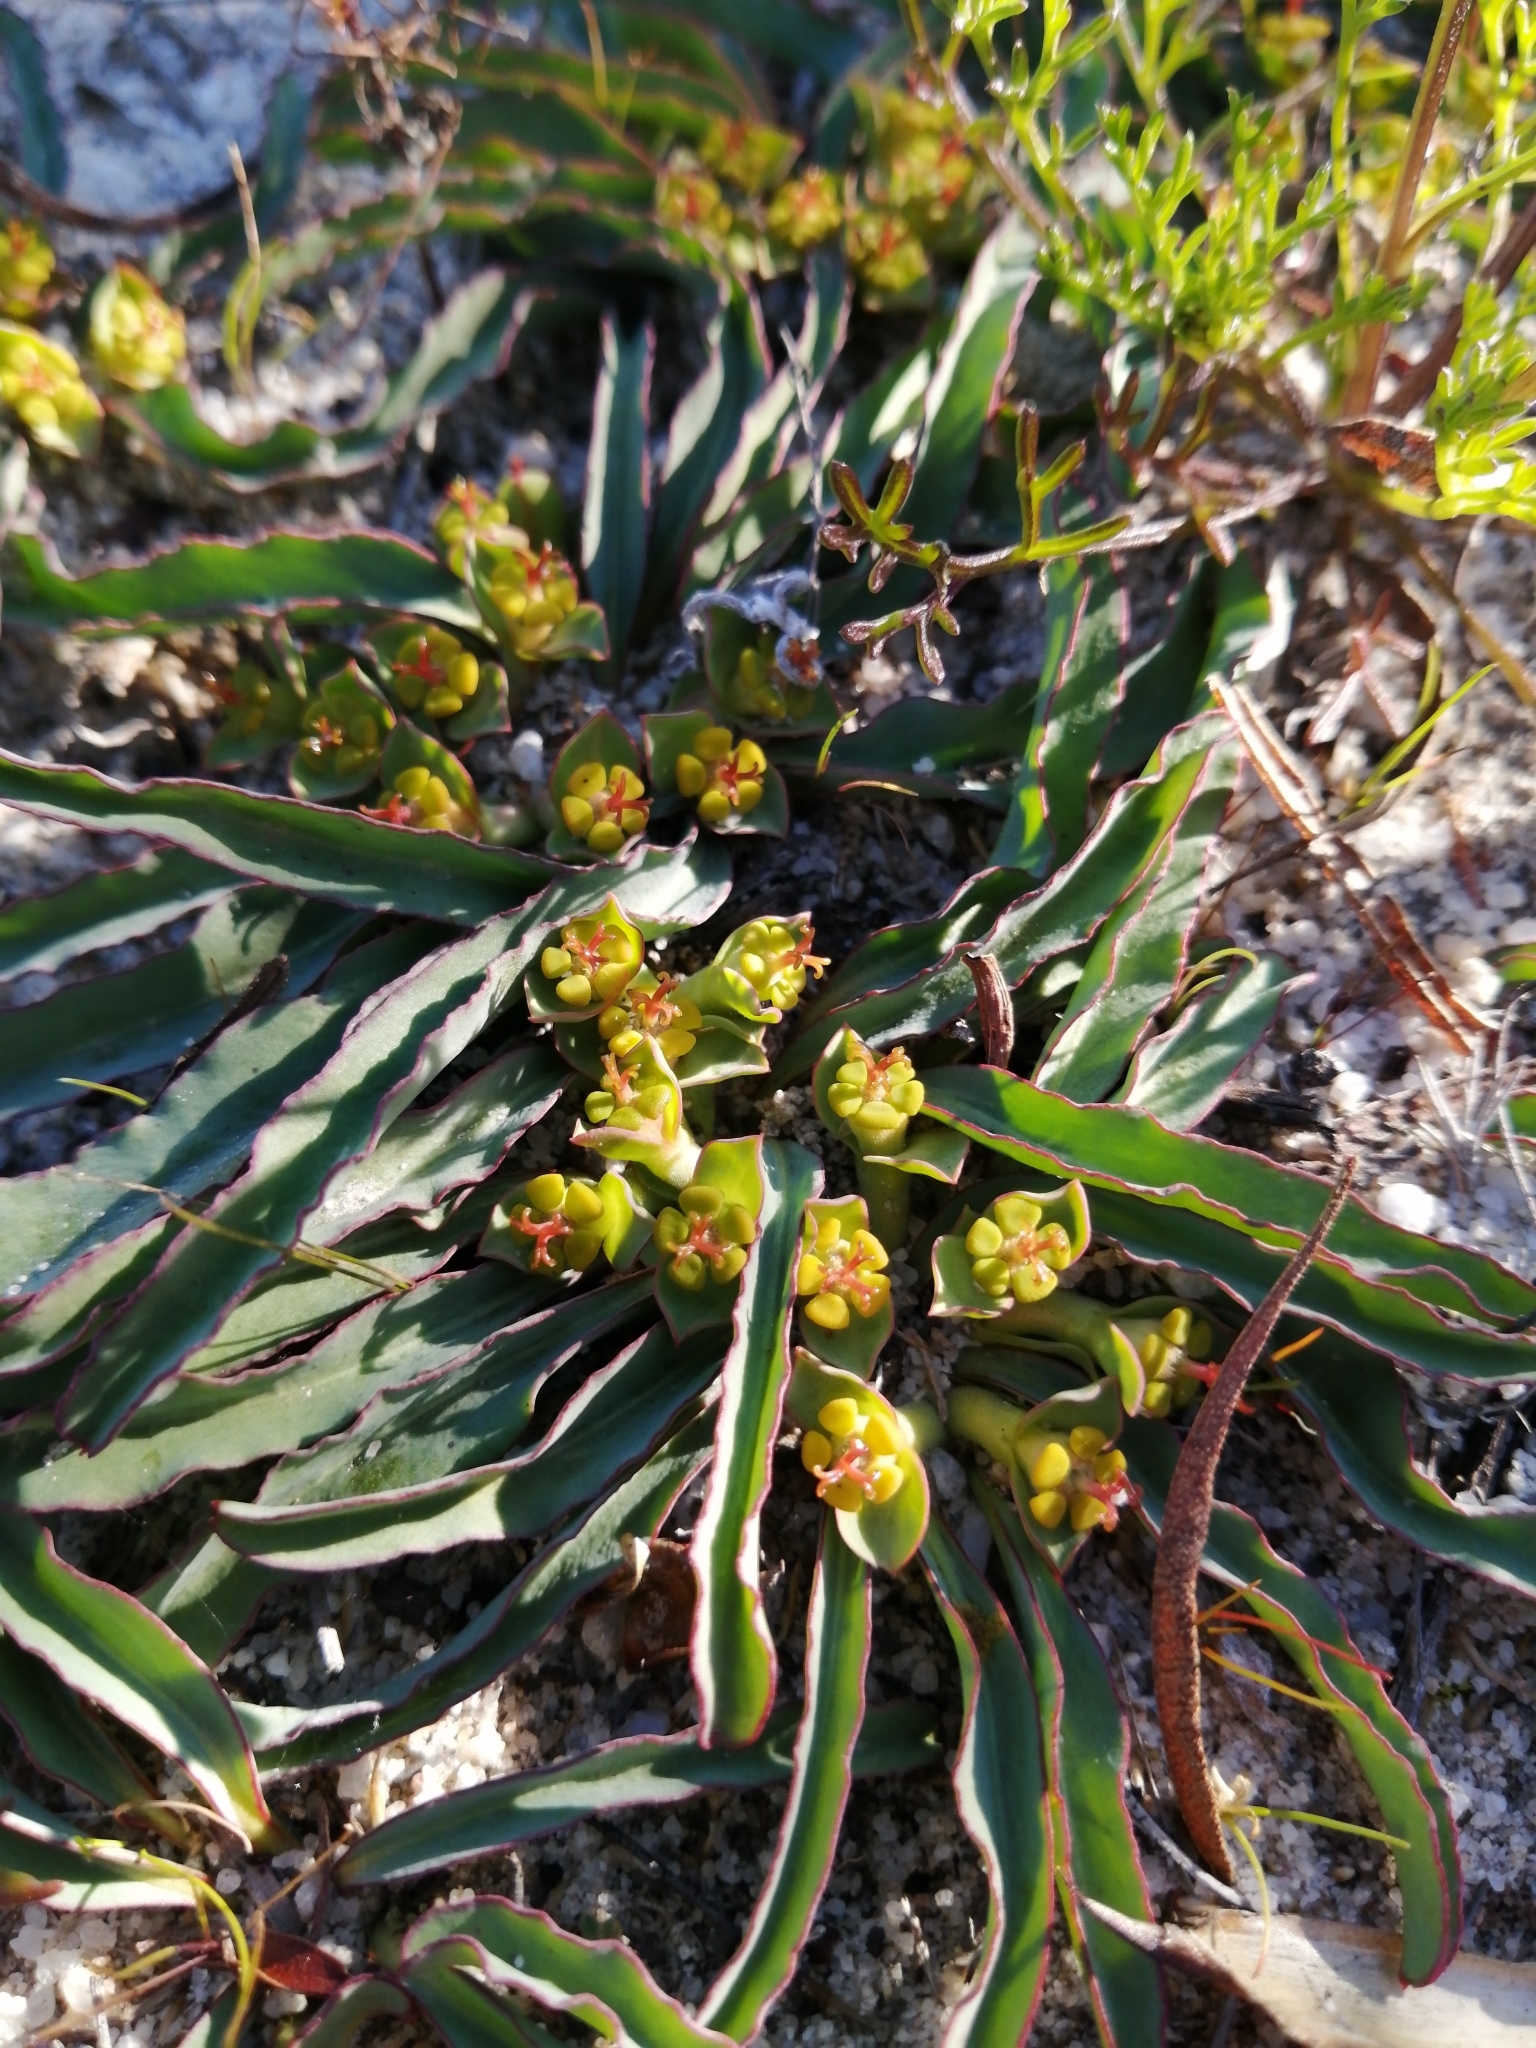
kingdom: Plantae
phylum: Tracheophyta
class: Magnoliopsida
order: Malpighiales
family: Euphorbiaceae
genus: Euphorbia
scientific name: Euphorbia tuberosa
